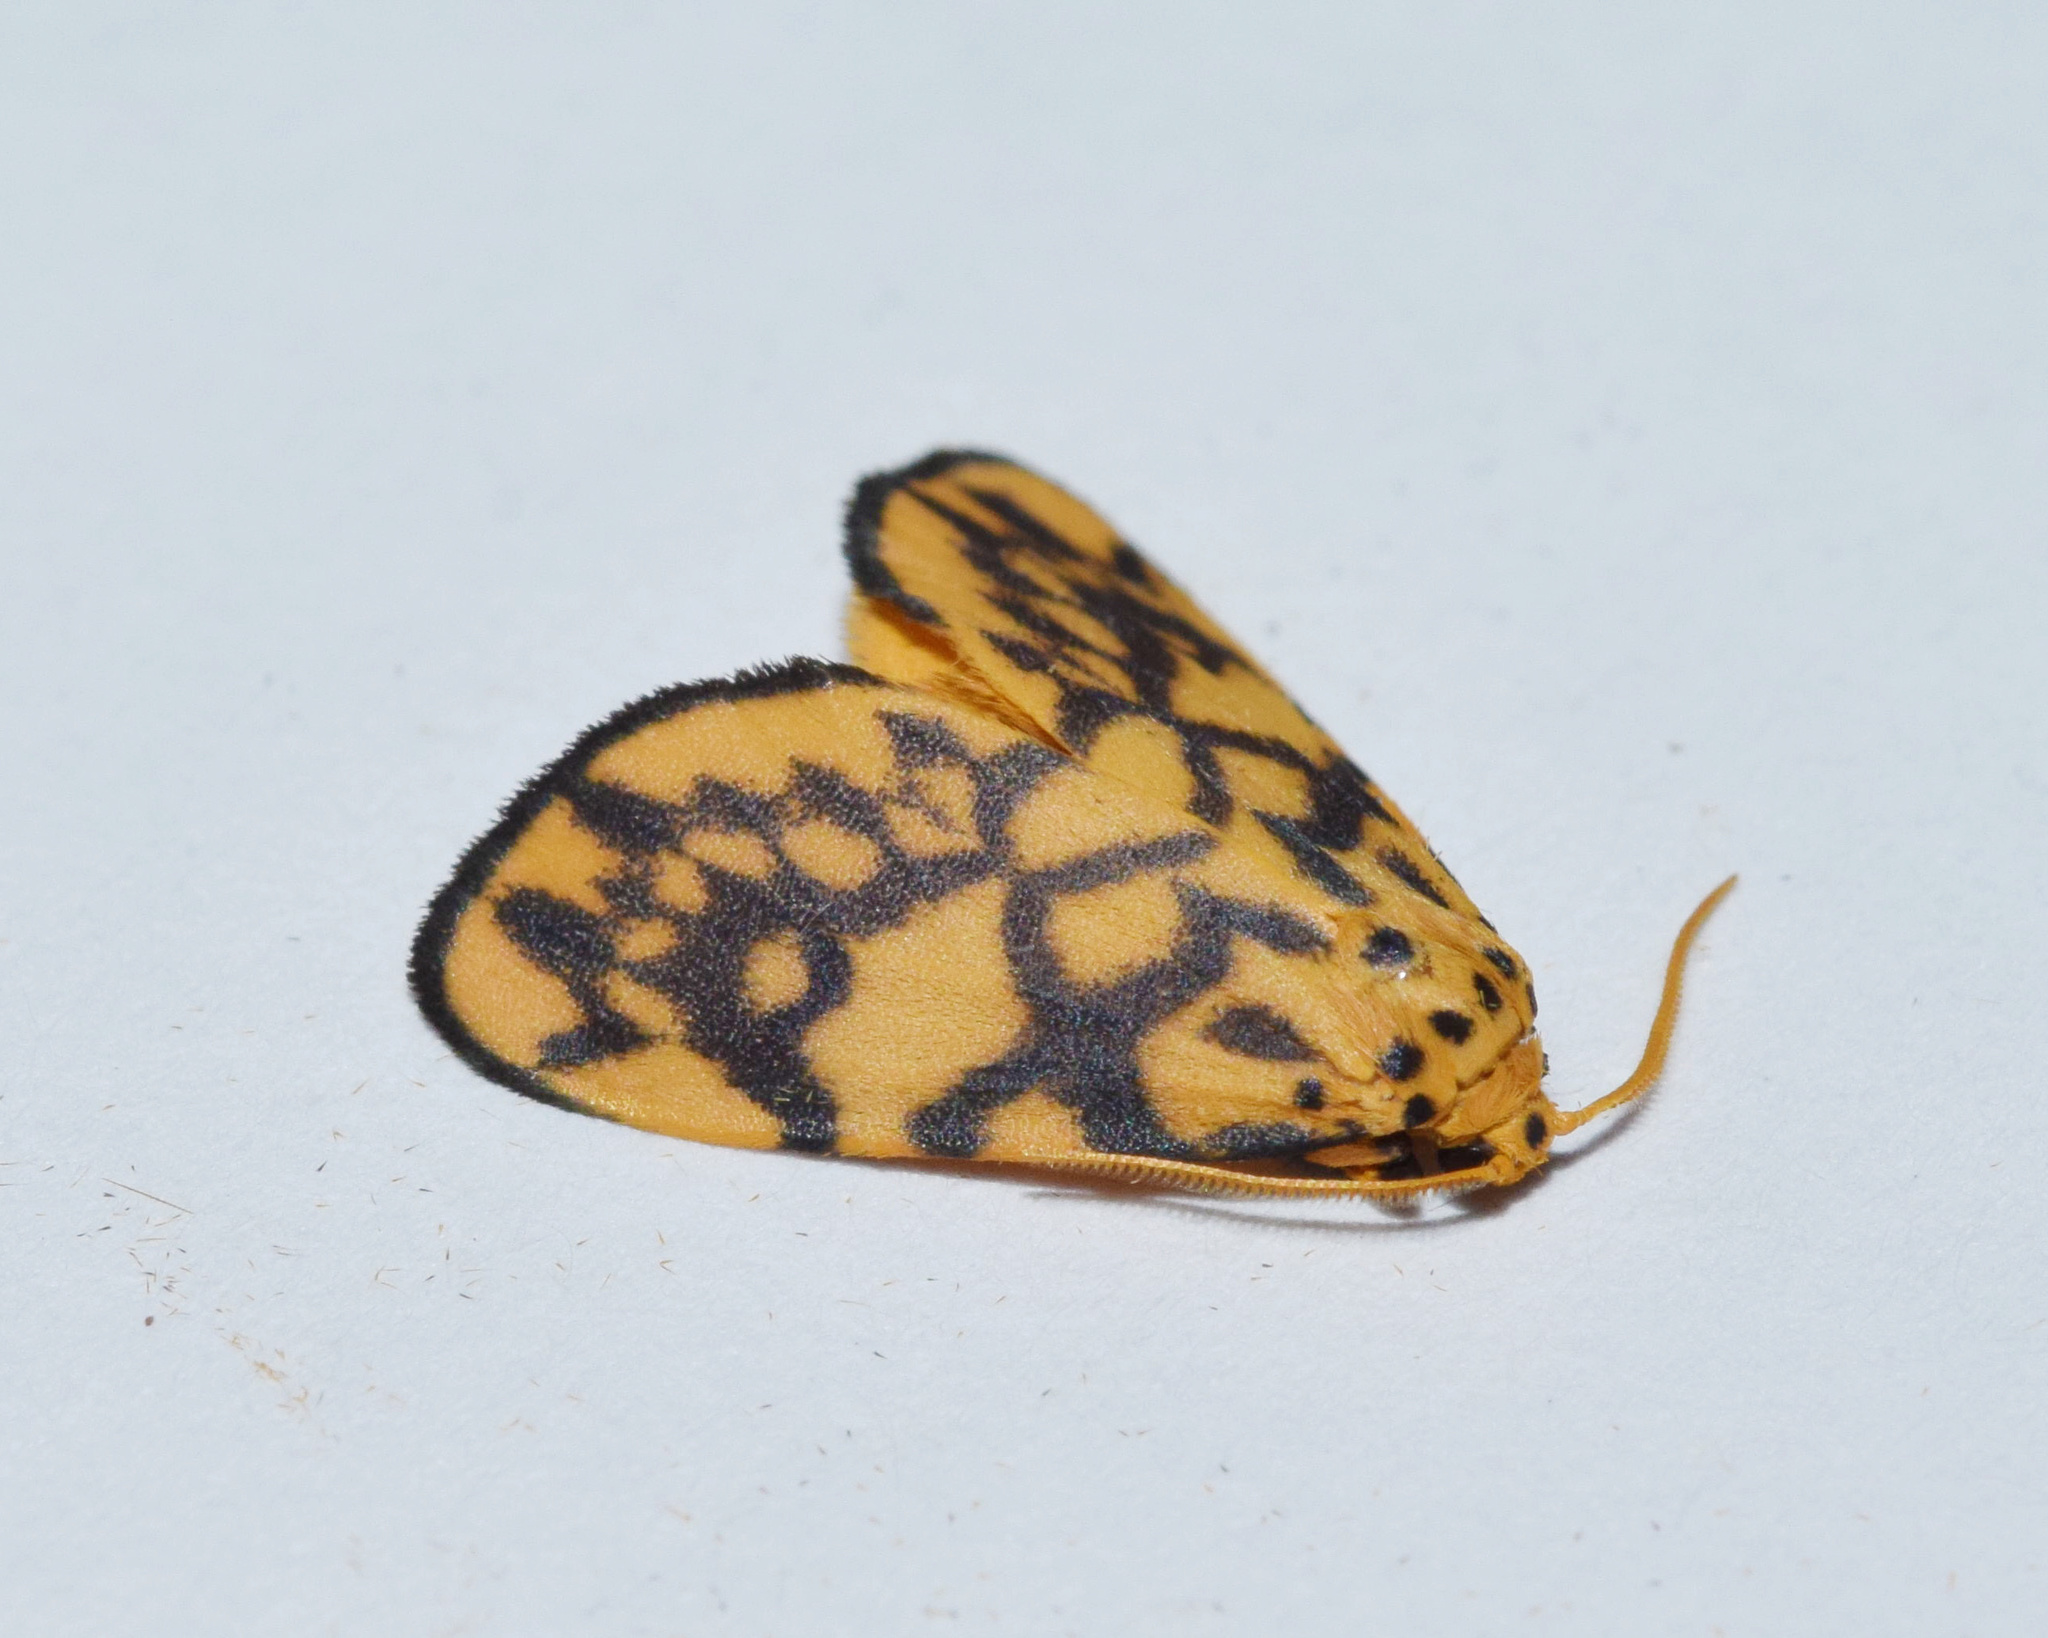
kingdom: Animalia
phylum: Arthropoda
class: Insecta
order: Lepidoptera
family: Erebidae
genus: Tumicla
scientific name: Tumicla sagenaria
